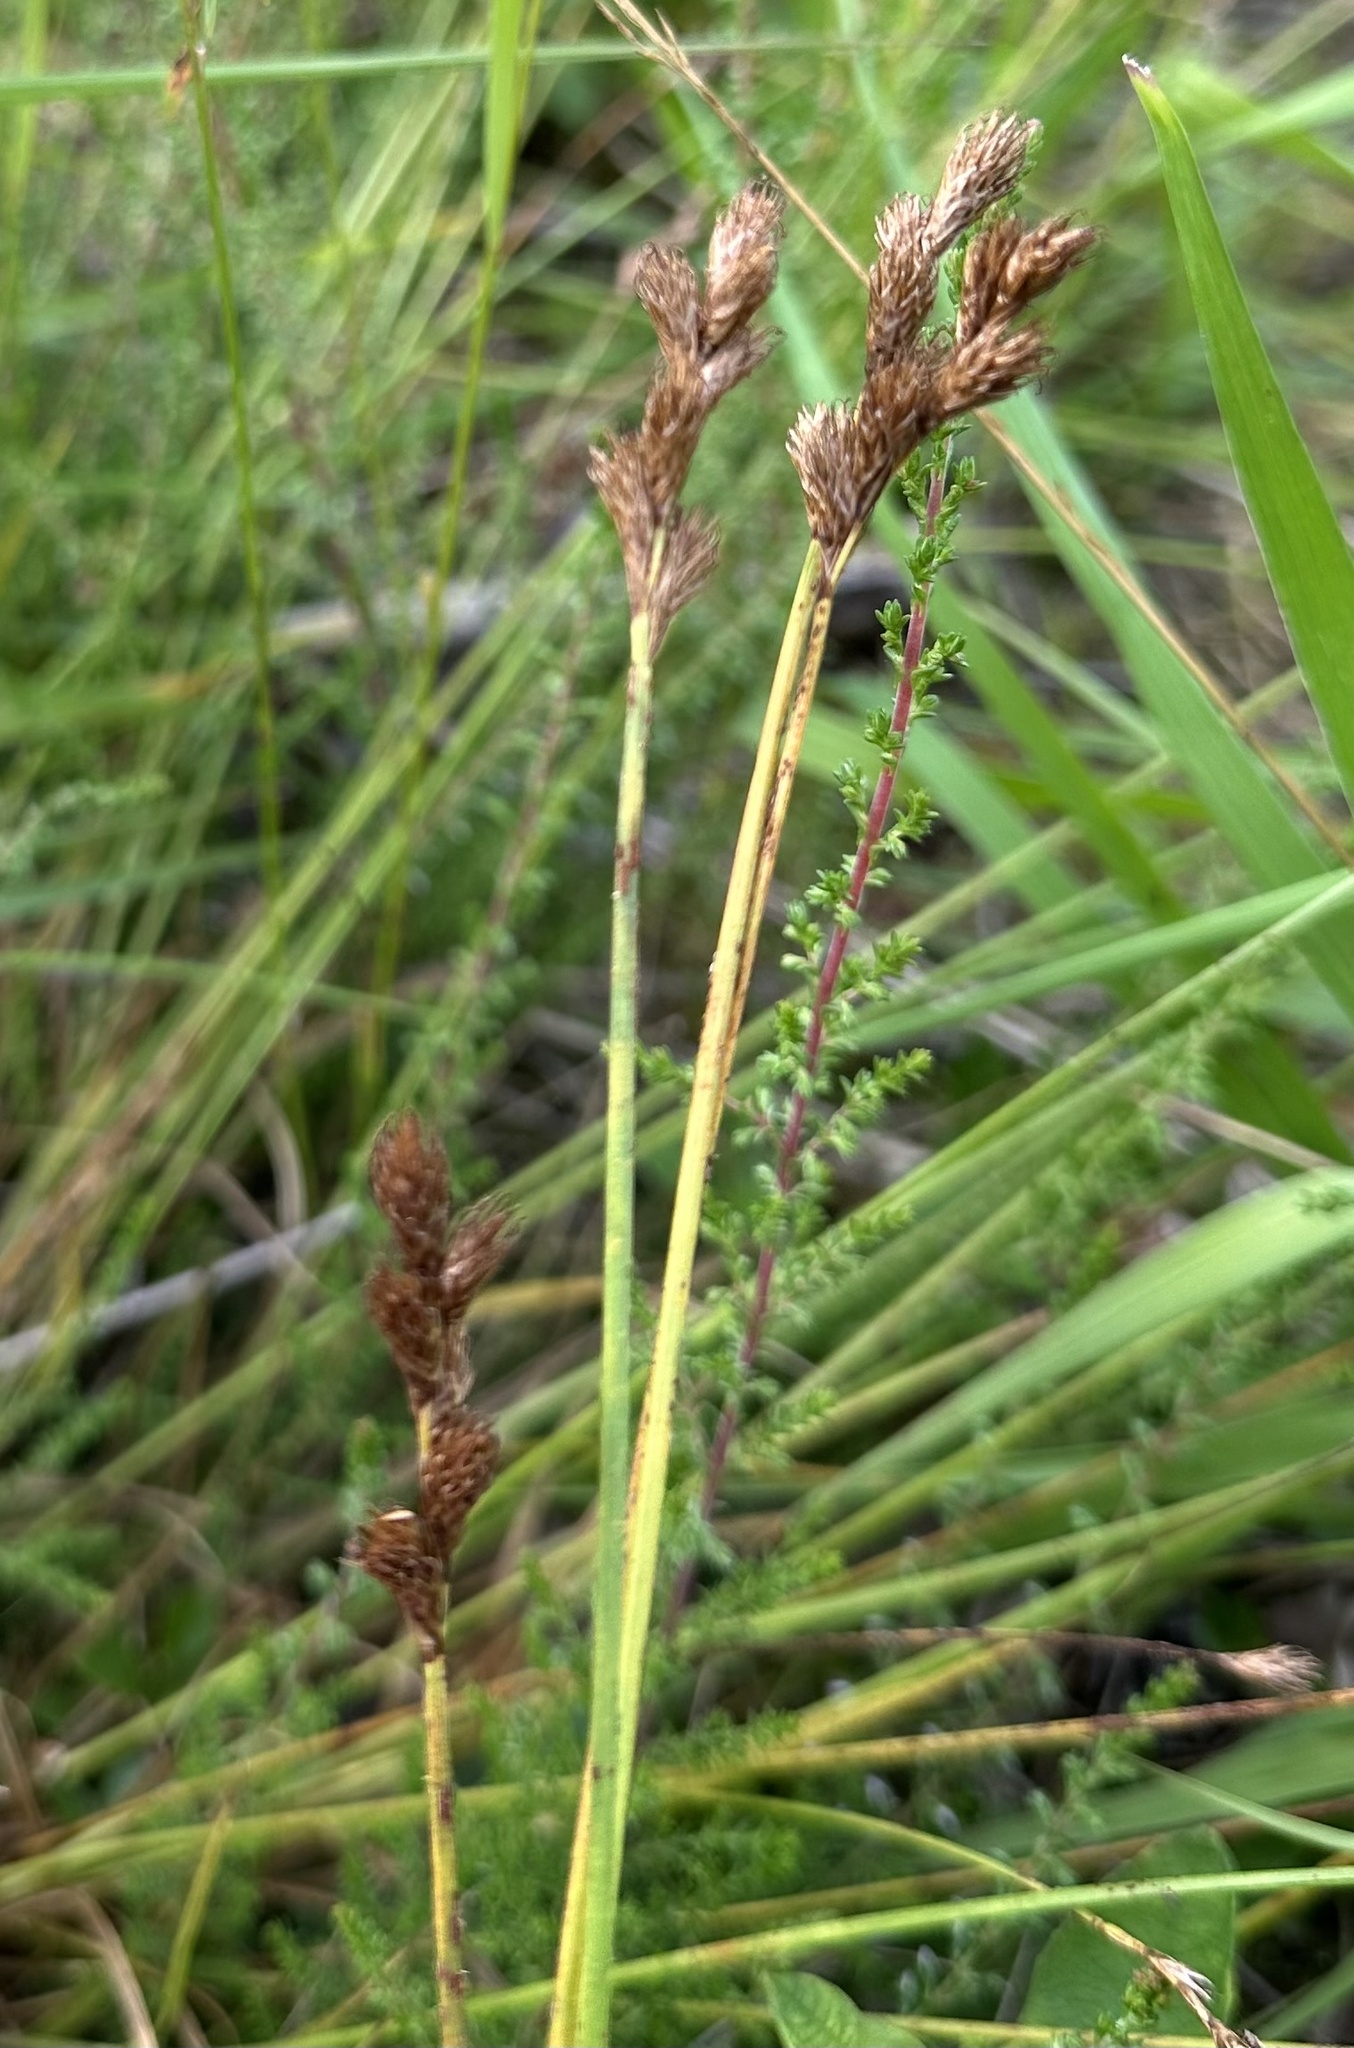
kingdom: Plantae
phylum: Tracheophyta
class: Liliopsida
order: Poales
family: Cyperaceae
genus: Carex
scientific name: Carex leporina
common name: Oval sedge
